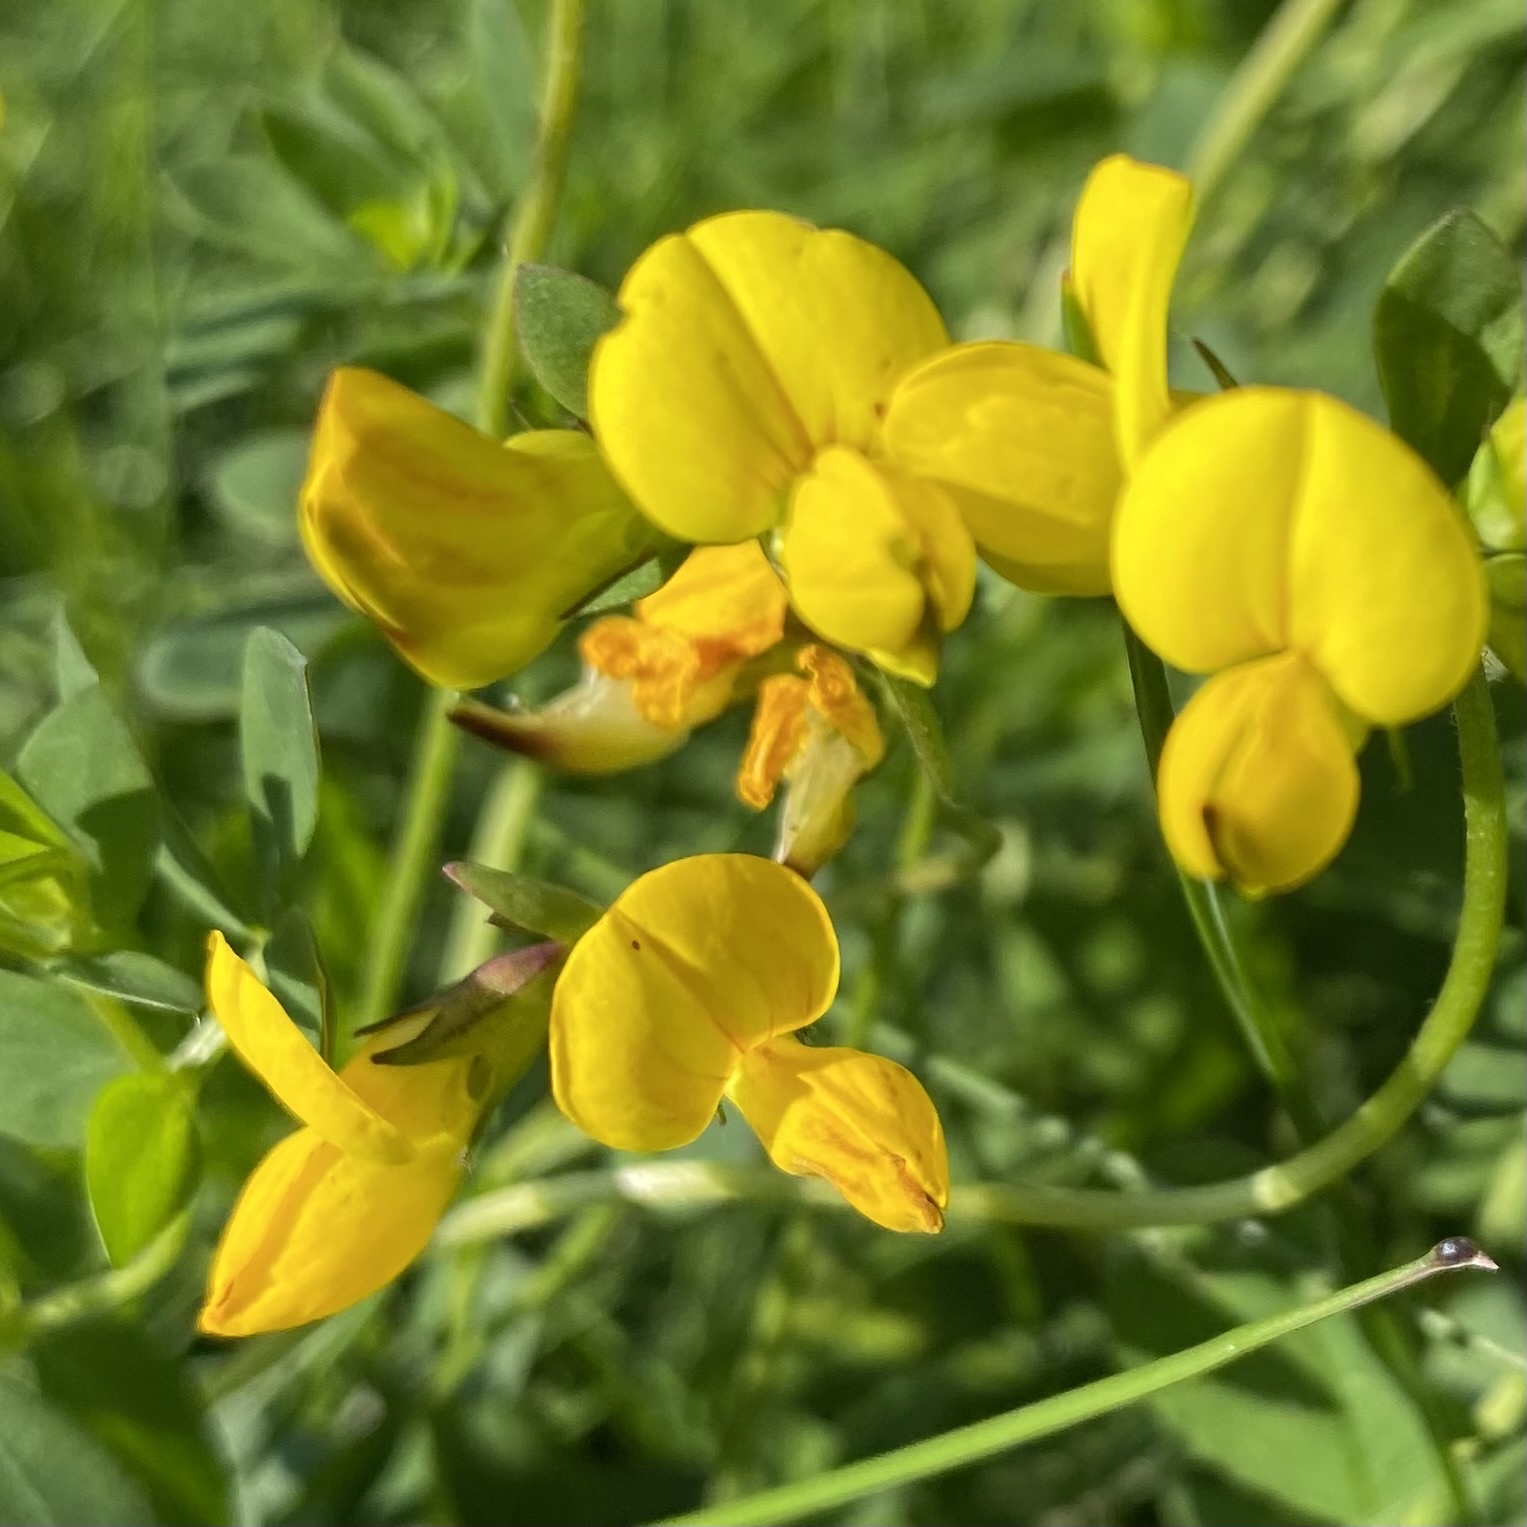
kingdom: Plantae
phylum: Tracheophyta
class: Magnoliopsida
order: Fabales
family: Fabaceae
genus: Lotus
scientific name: Lotus corniculatus
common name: Common bird's-foot-trefoil
